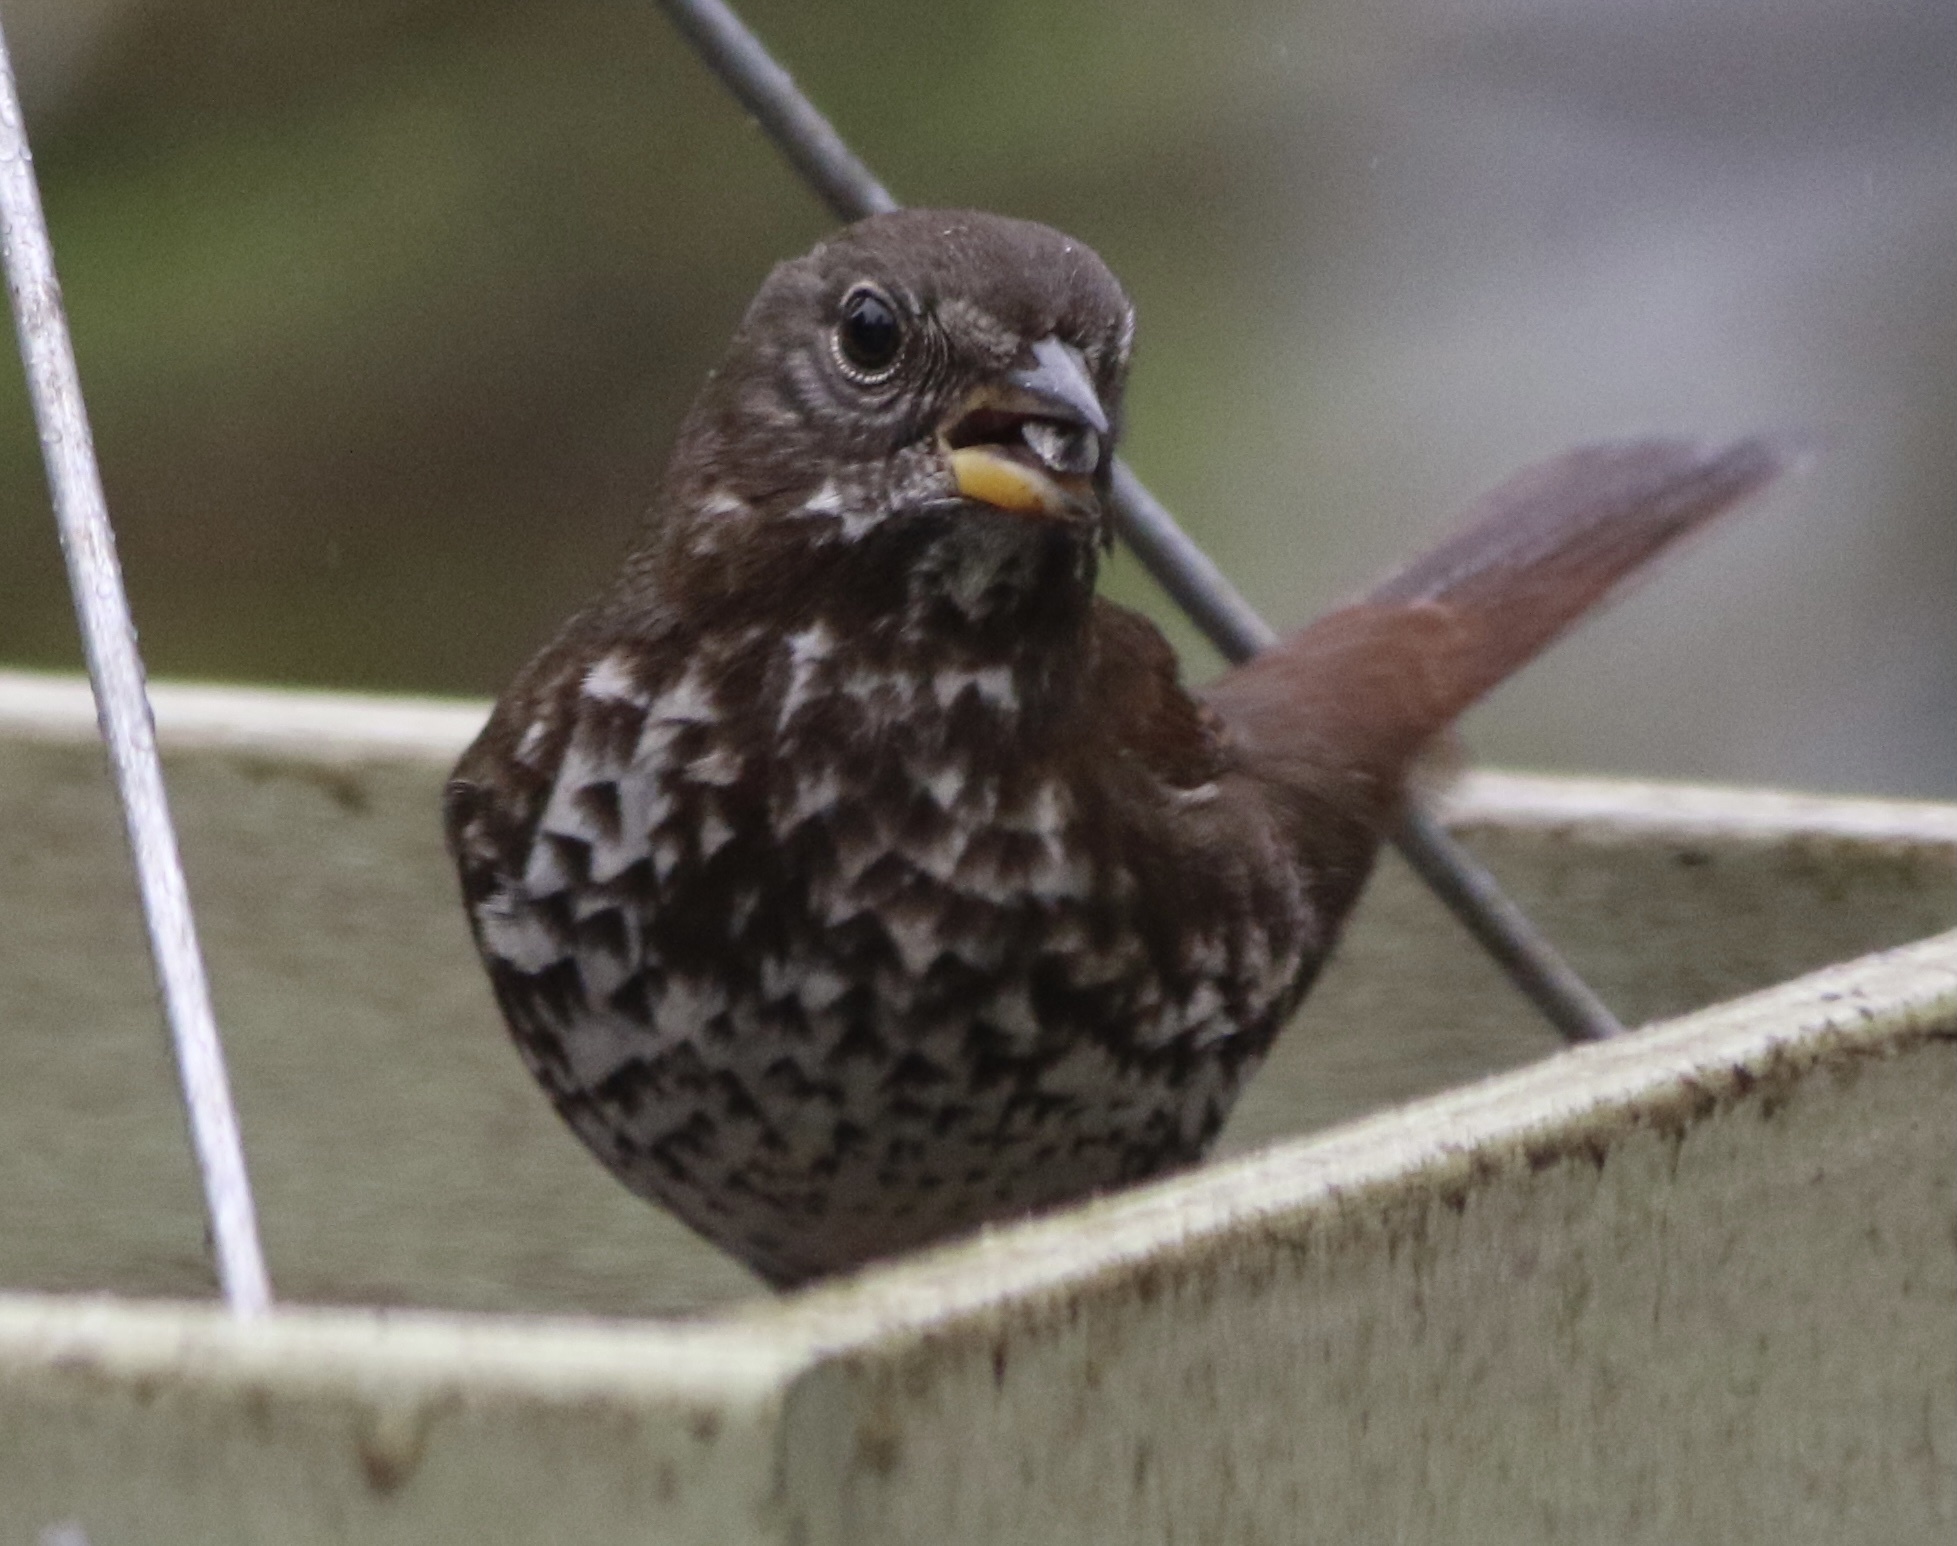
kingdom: Animalia
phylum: Chordata
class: Aves
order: Passeriformes
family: Passerellidae
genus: Passerella
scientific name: Passerella iliaca
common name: Fox sparrow
